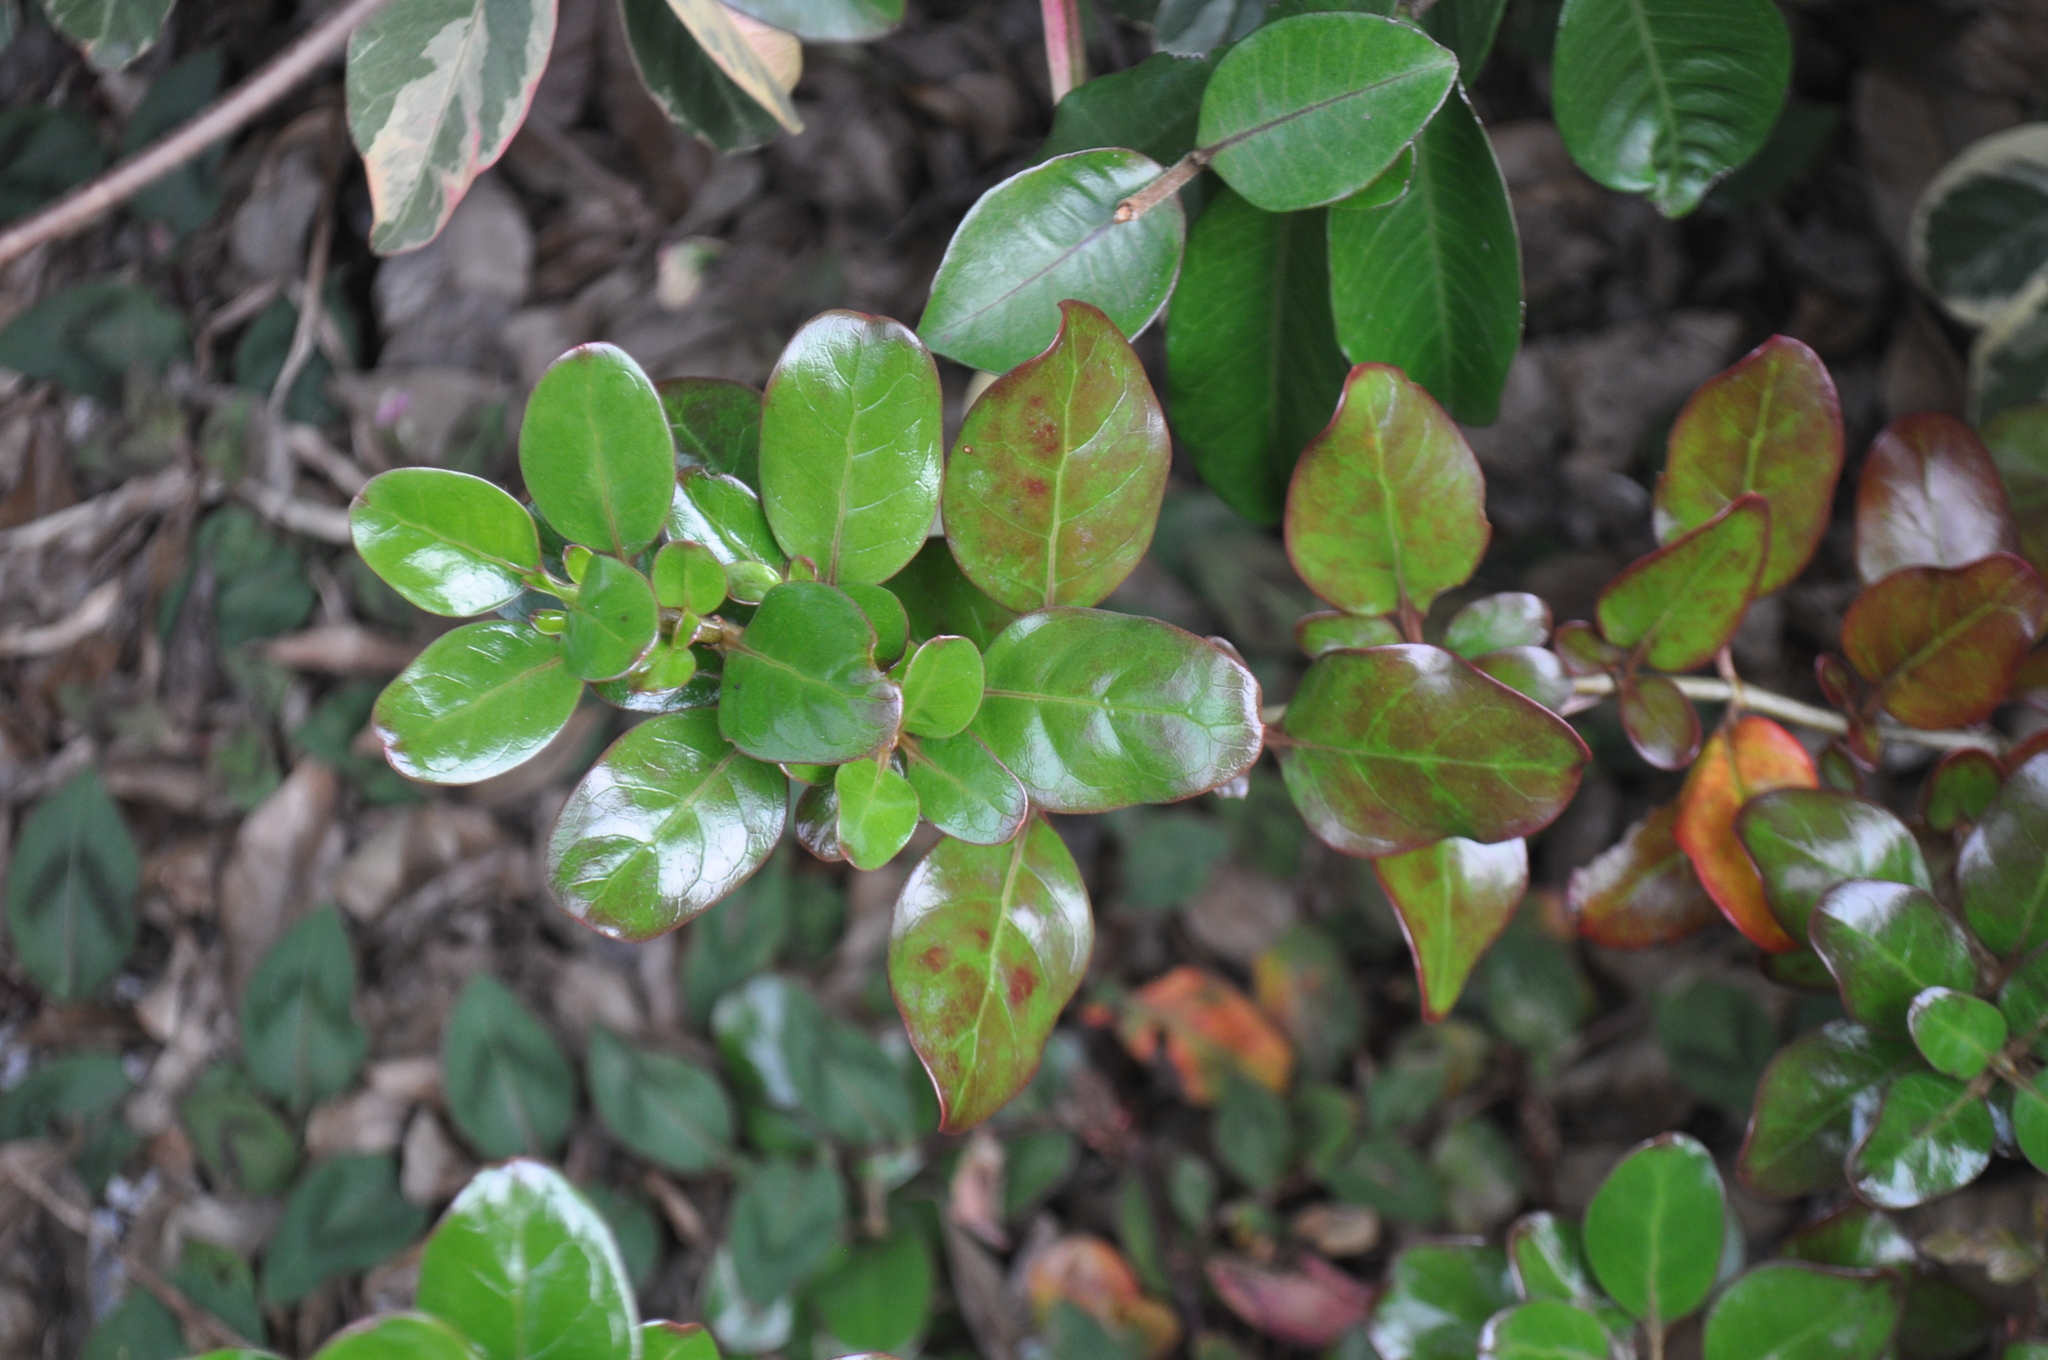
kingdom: Plantae
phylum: Tracheophyta
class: Magnoliopsida
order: Gentianales
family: Rubiaceae
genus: Coprosma
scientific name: Coprosma repens
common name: Tree bedstraw
